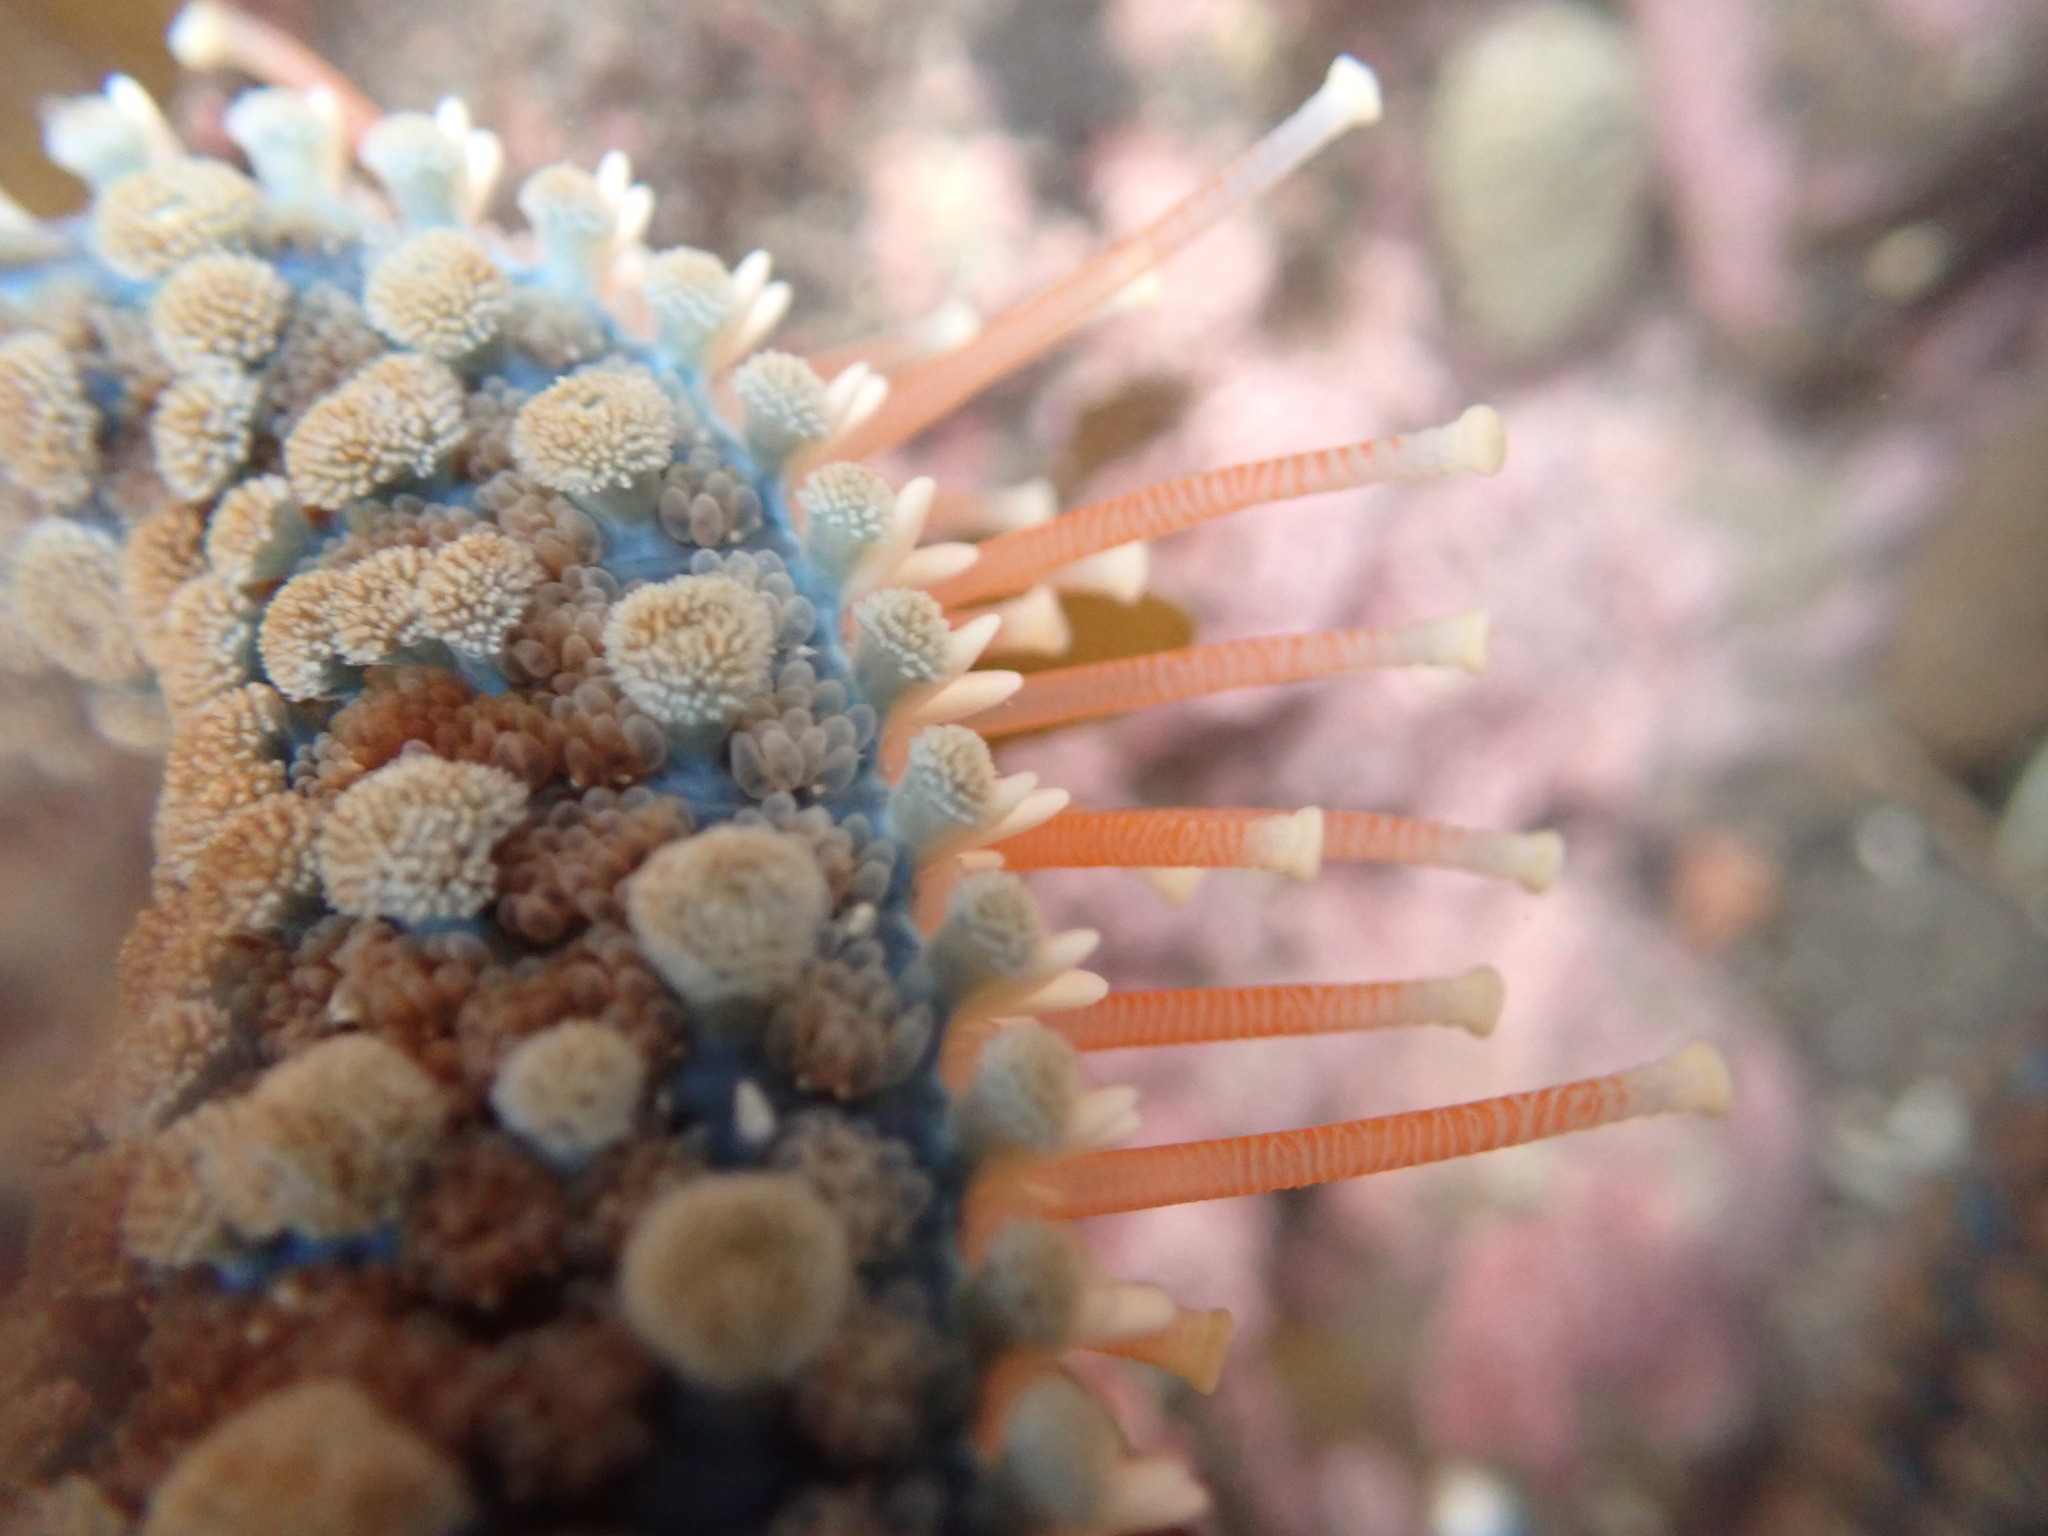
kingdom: Animalia
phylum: Echinodermata
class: Asteroidea
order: Forcipulatida
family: Asteriidae
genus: Astrostole
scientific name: Astrostole scabra
